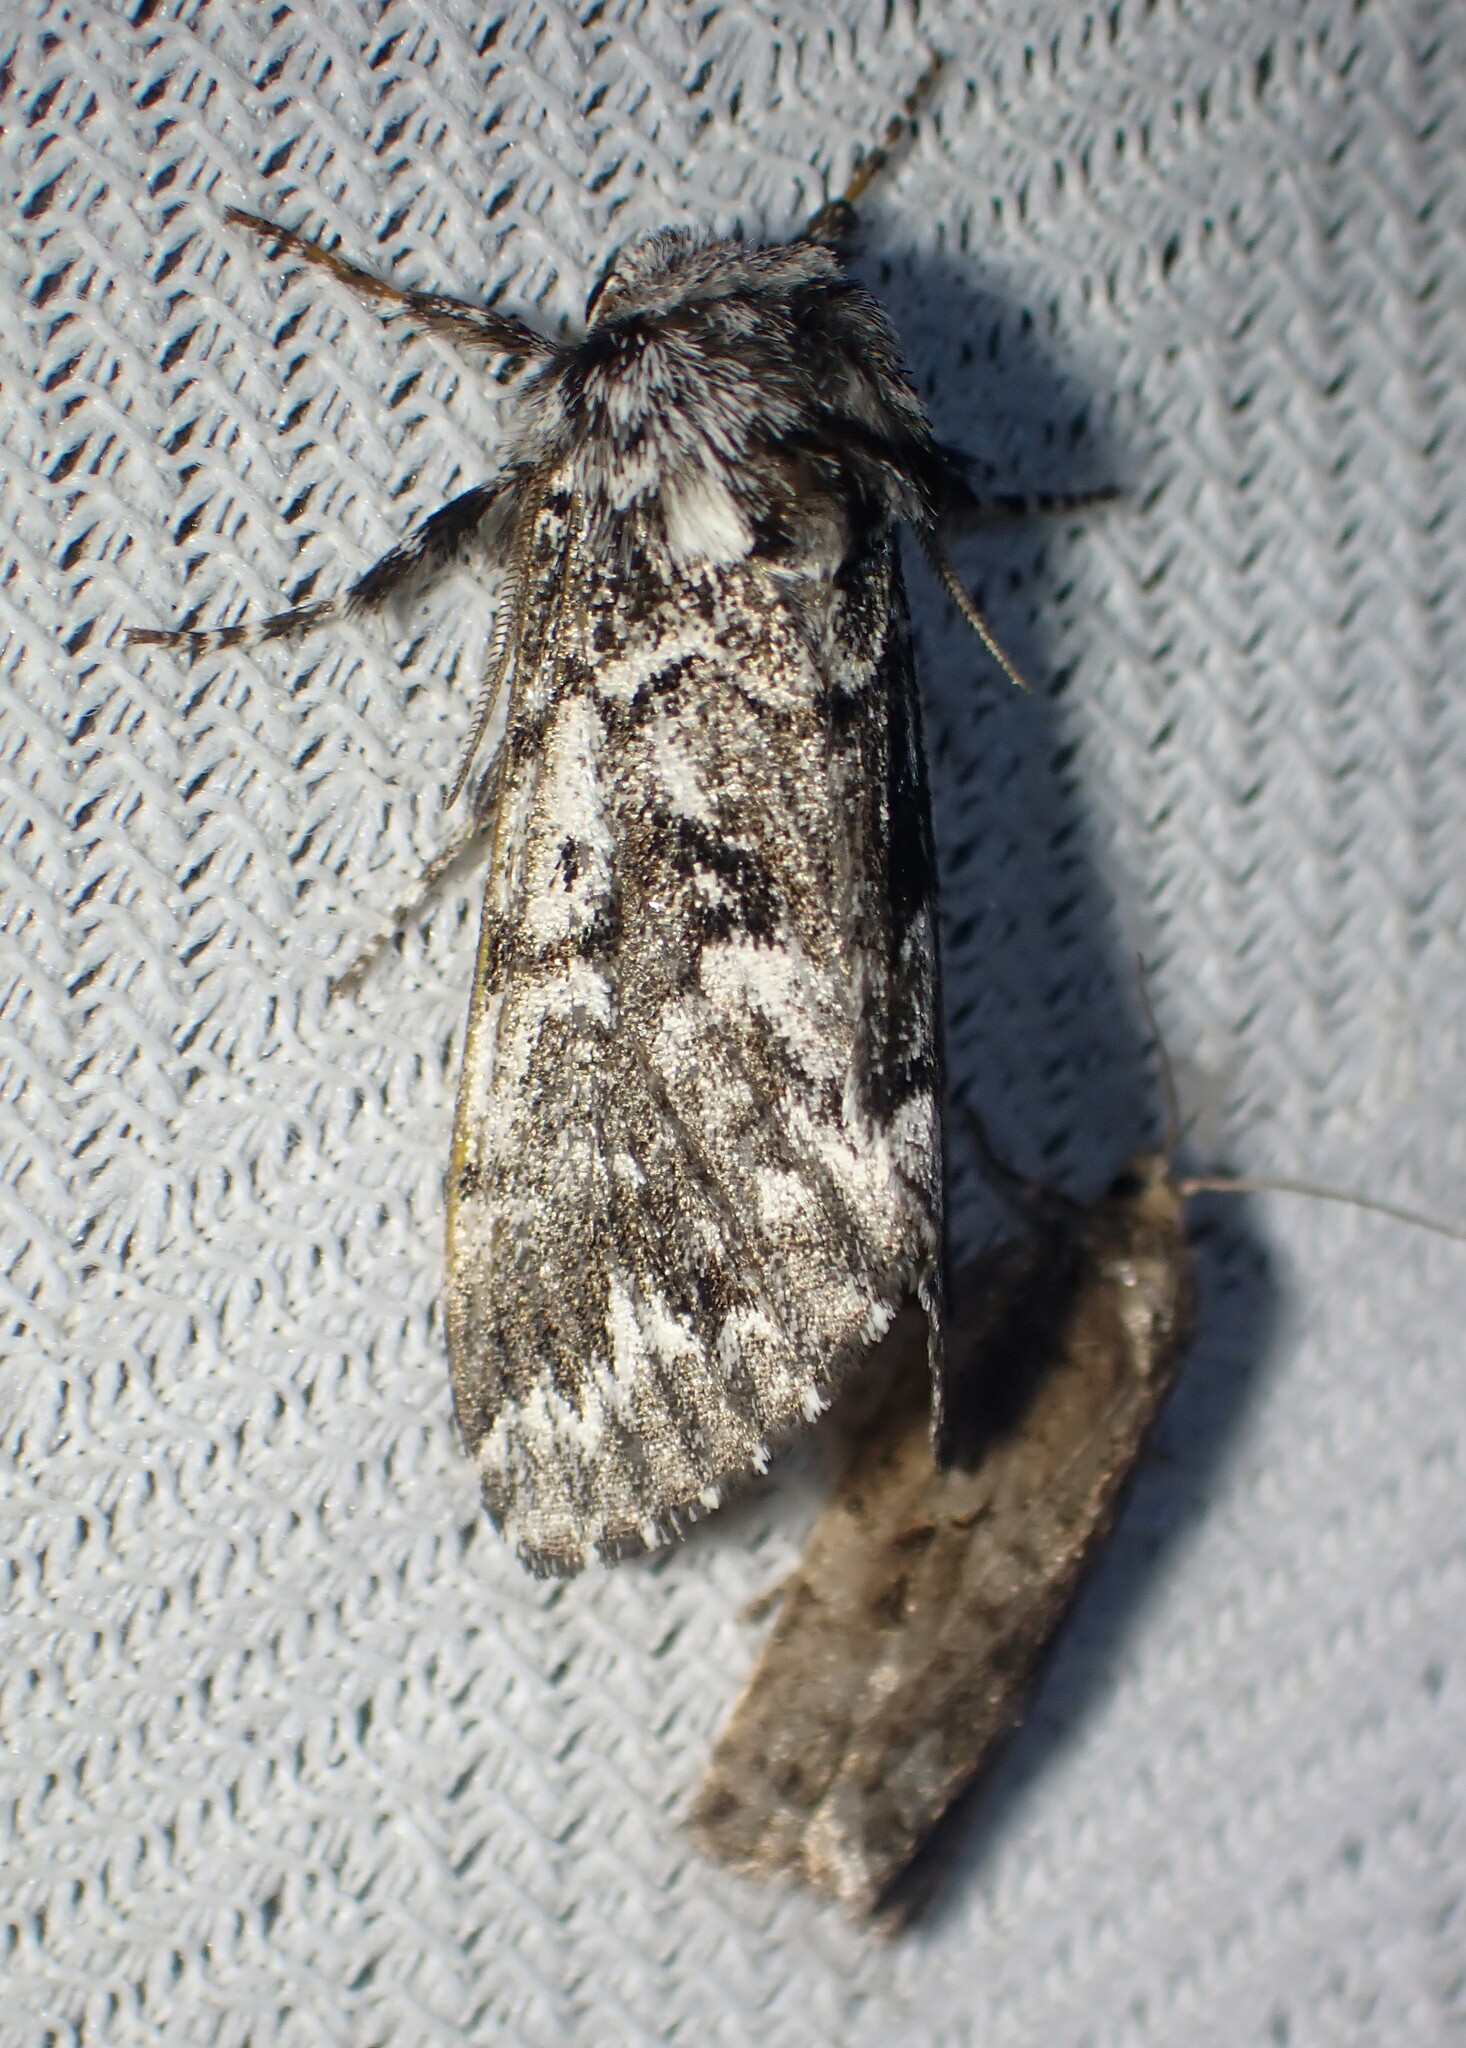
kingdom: Animalia
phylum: Arthropoda
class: Insecta
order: Lepidoptera
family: Noctuidae
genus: Panthea
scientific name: Panthea acronyctoides
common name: Black zigzag moth
